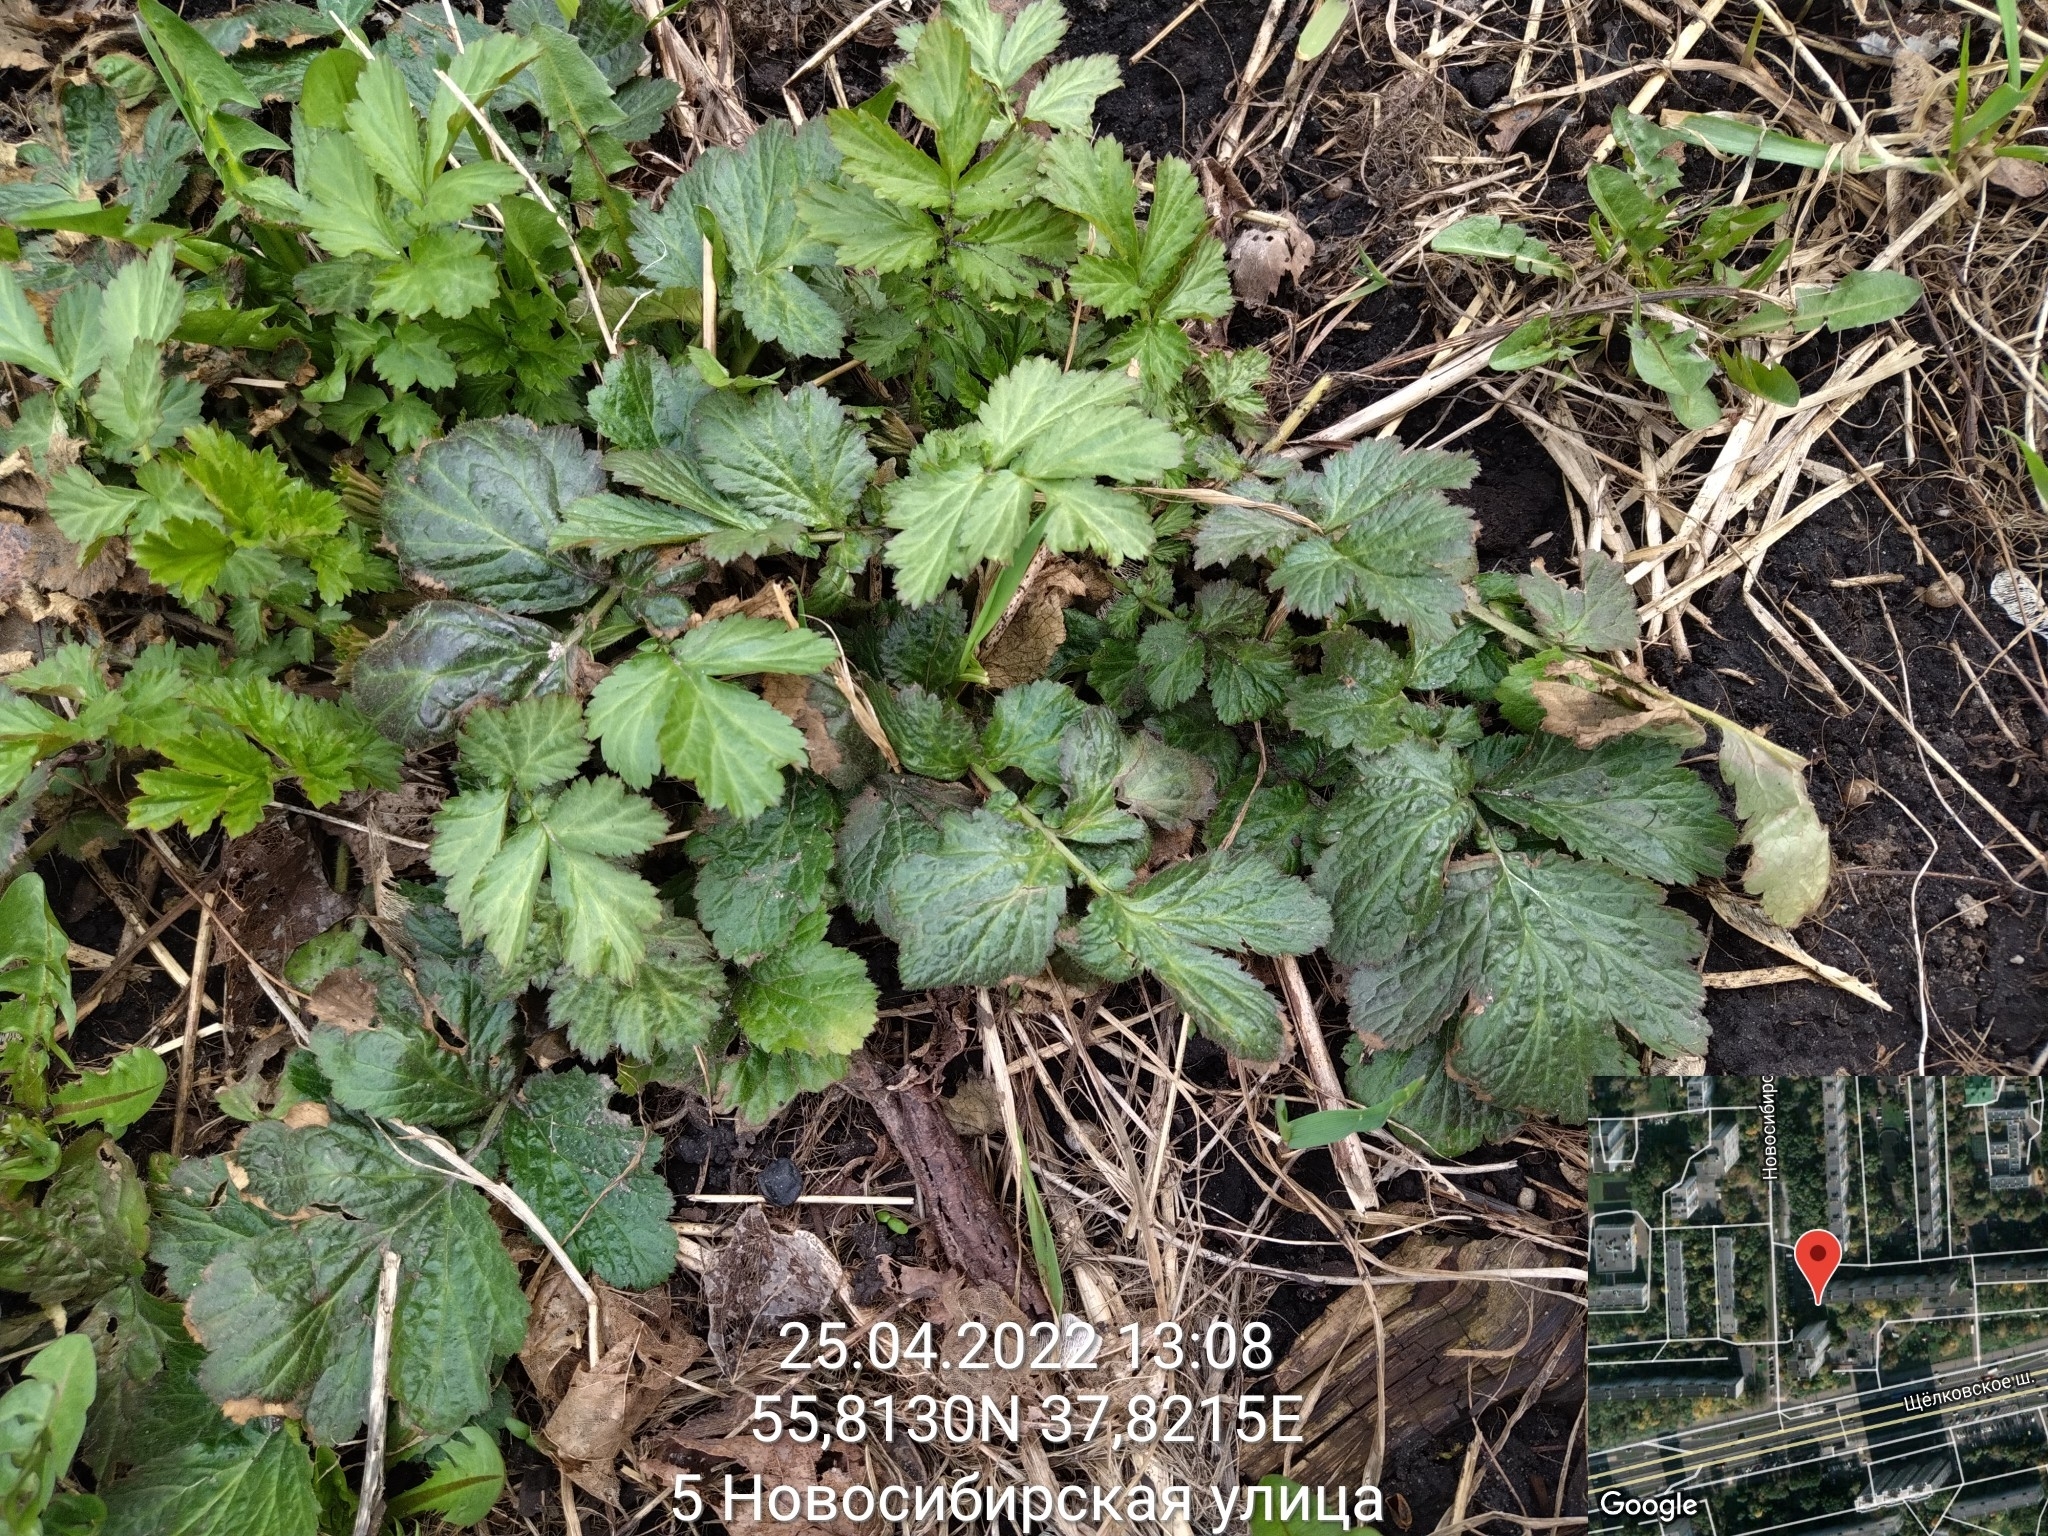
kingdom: Plantae
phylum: Tracheophyta
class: Magnoliopsida
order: Rosales
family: Rosaceae
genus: Geum
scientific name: Geum
